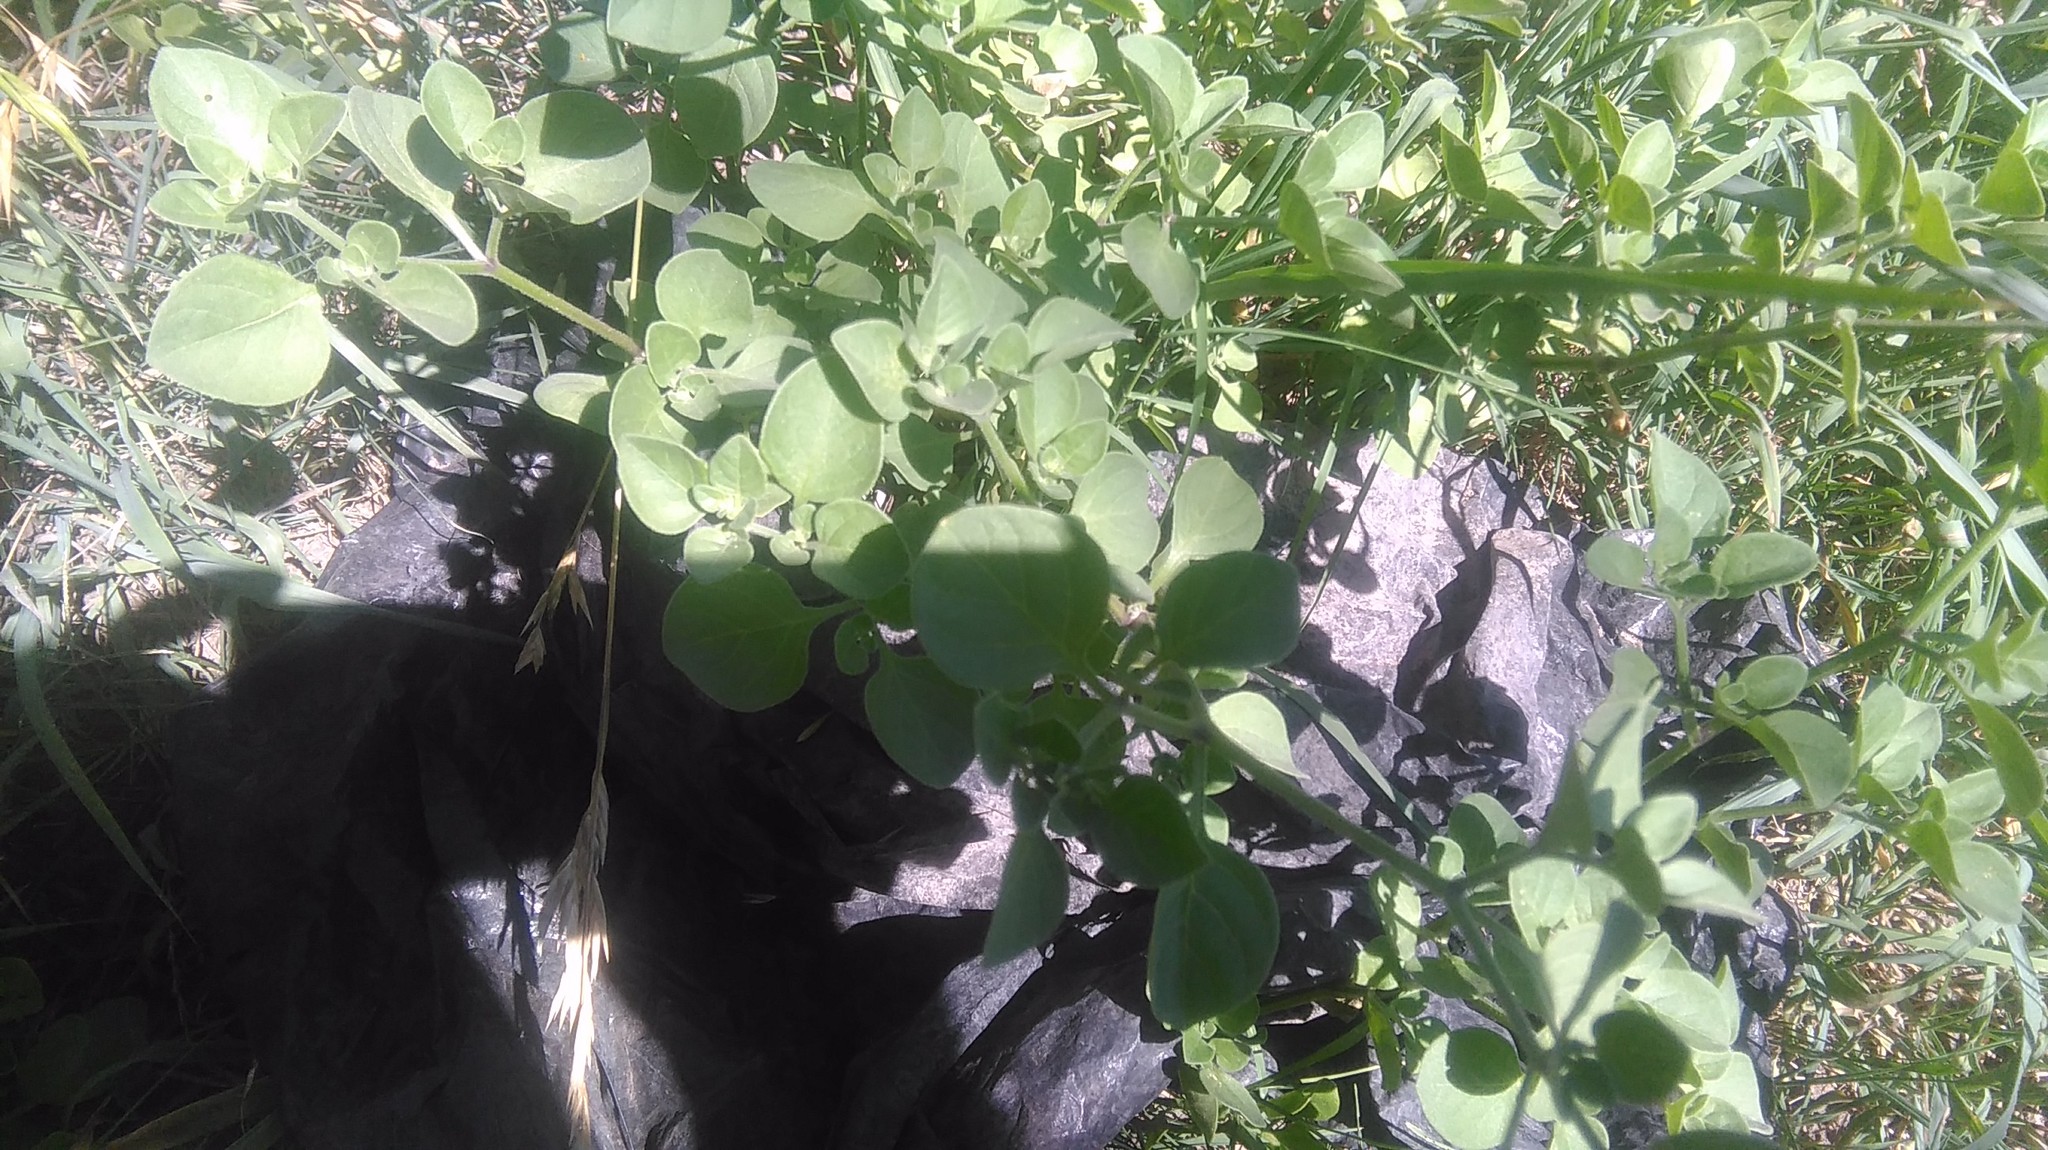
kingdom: Plantae
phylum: Tracheophyta
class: Magnoliopsida
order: Solanales
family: Solanaceae
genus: Salpichroa
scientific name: Salpichroa origanifolia
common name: Lily-of-the-valley-vine
